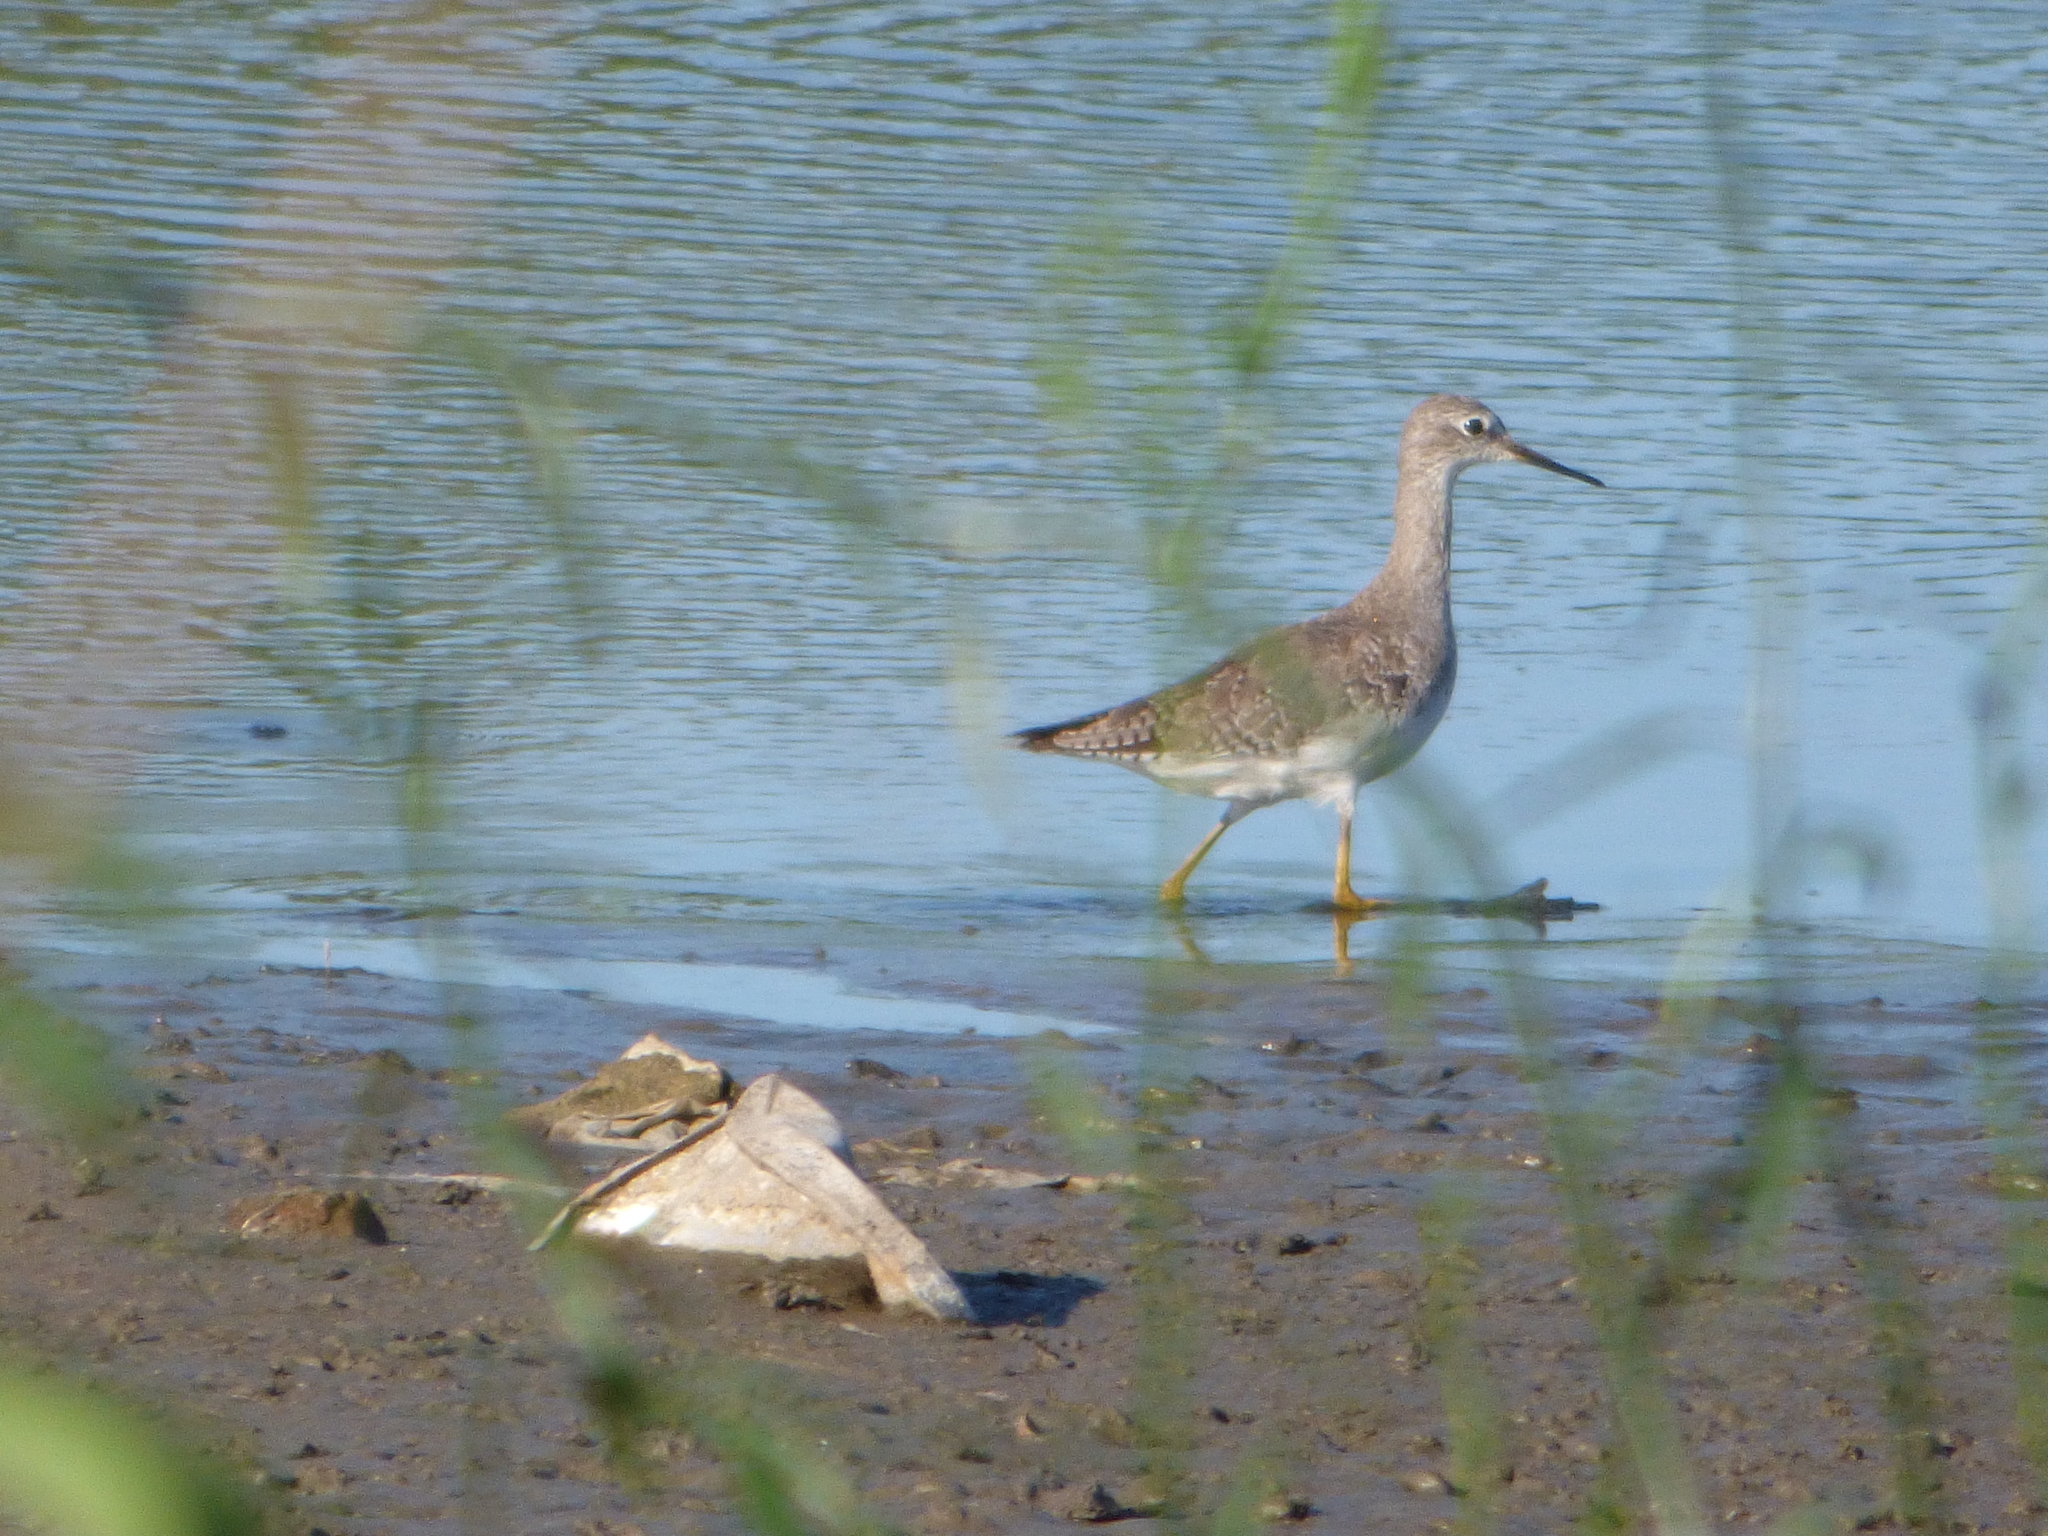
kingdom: Animalia
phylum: Chordata
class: Aves
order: Charadriiformes
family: Scolopacidae
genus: Tringa
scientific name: Tringa flavipes
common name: Lesser yellowlegs
